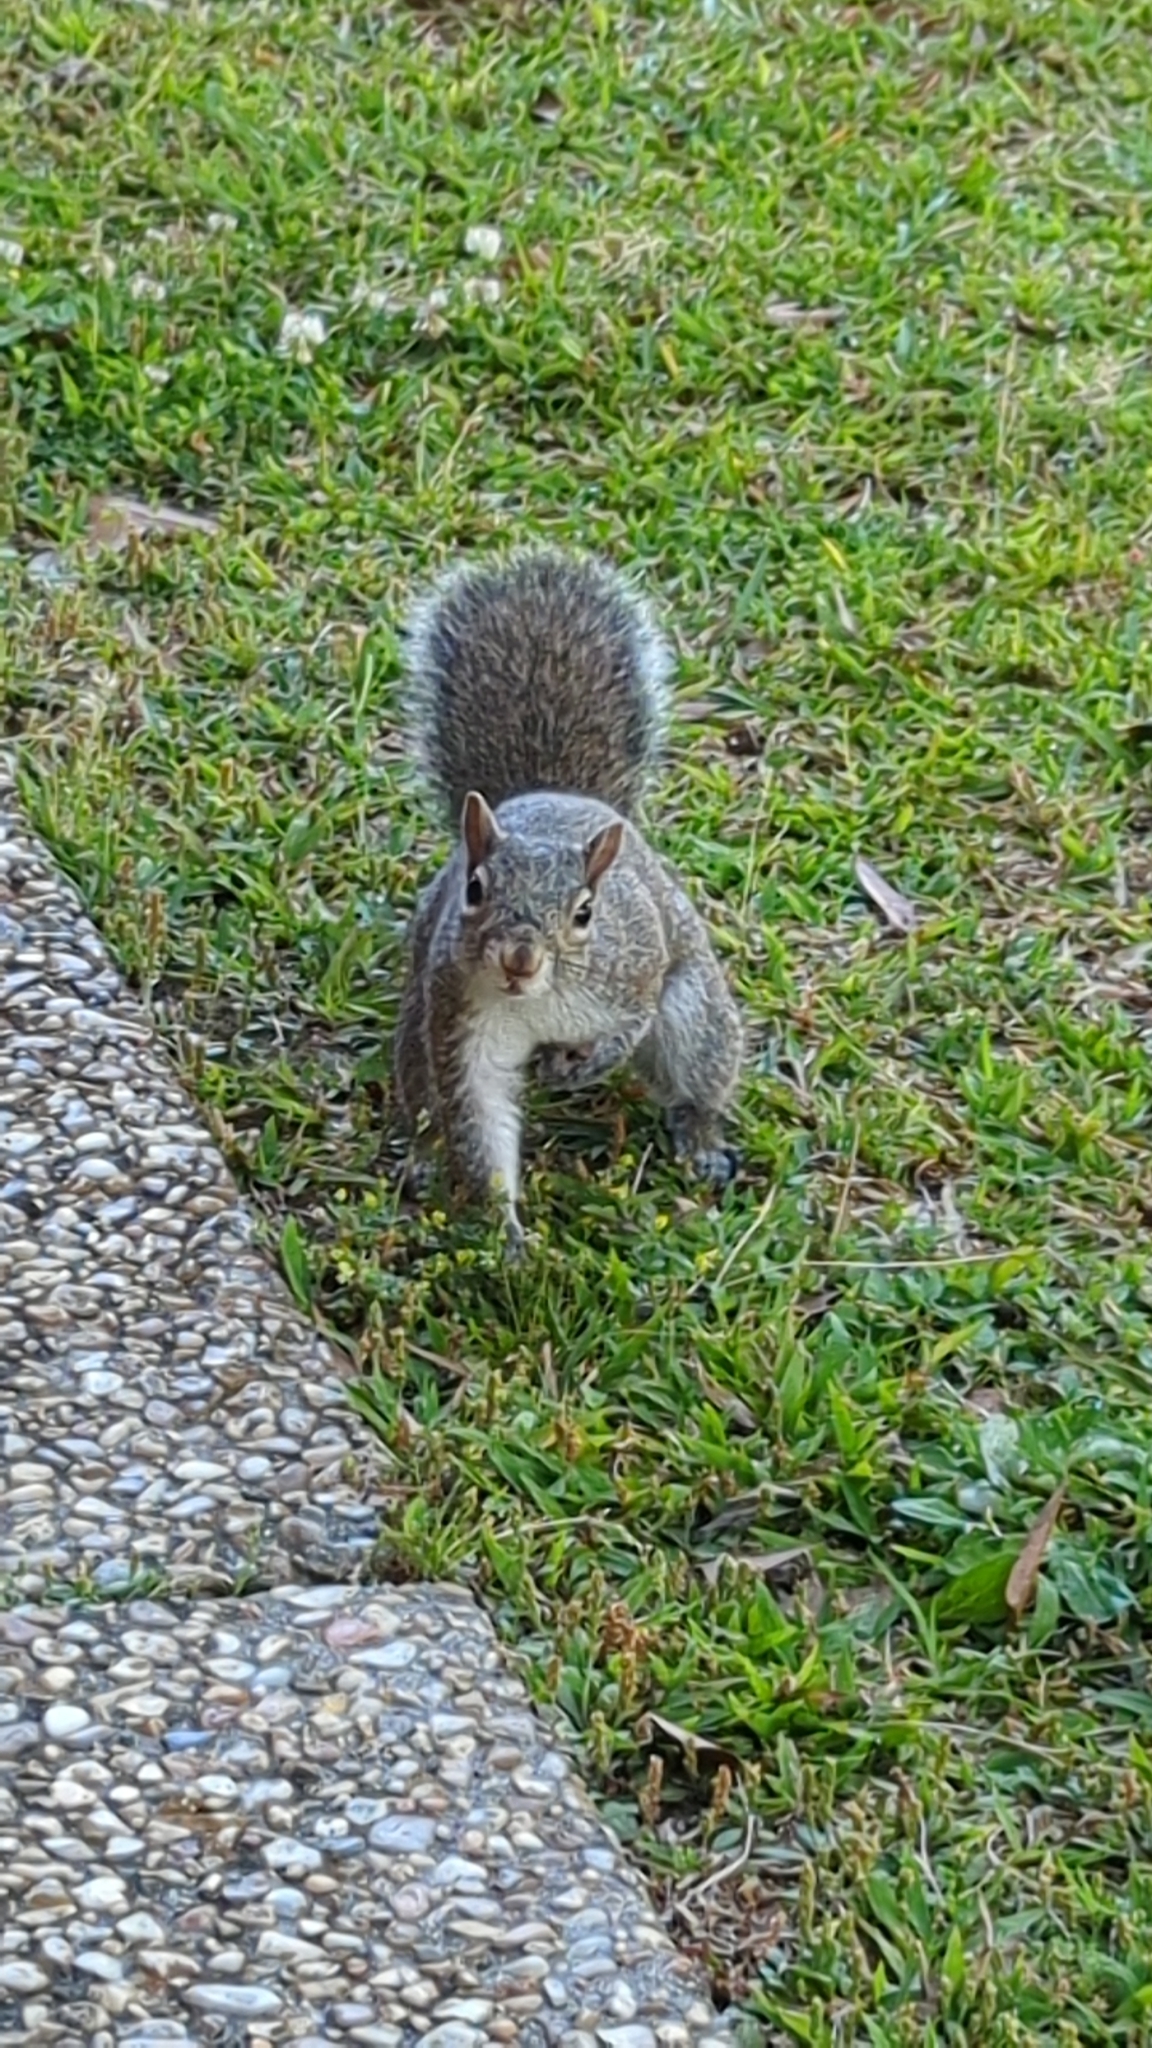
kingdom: Animalia
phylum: Chordata
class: Mammalia
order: Rodentia
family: Sciuridae
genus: Sciurus
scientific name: Sciurus carolinensis
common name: Eastern gray squirrel
